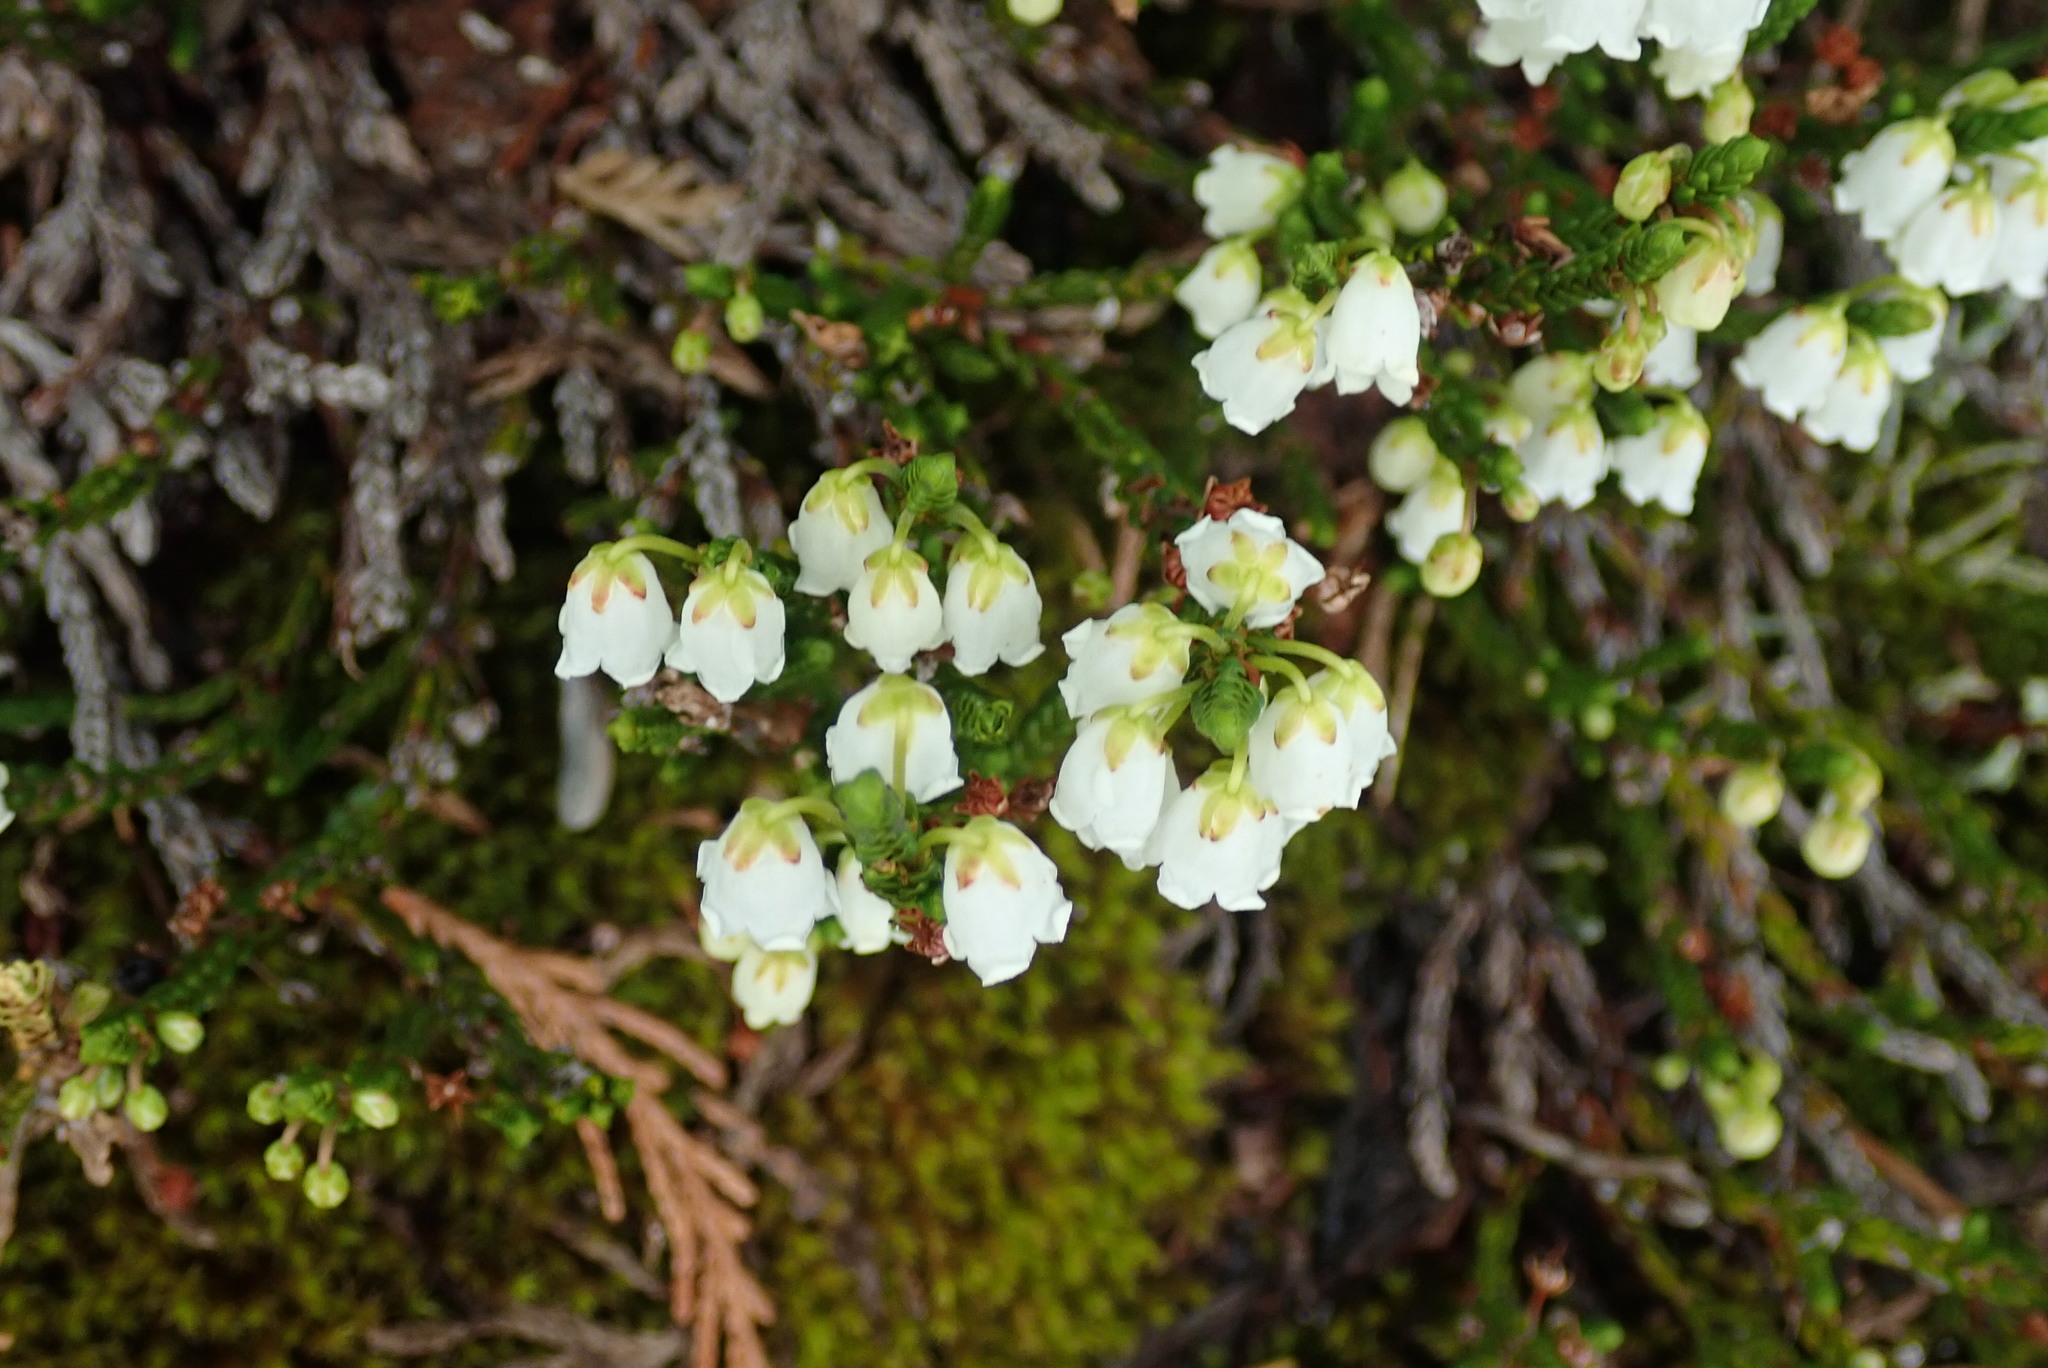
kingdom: Plantae
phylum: Tracheophyta
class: Magnoliopsida
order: Ericales
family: Ericaceae
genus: Cassiope
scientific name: Cassiope mertensiana
